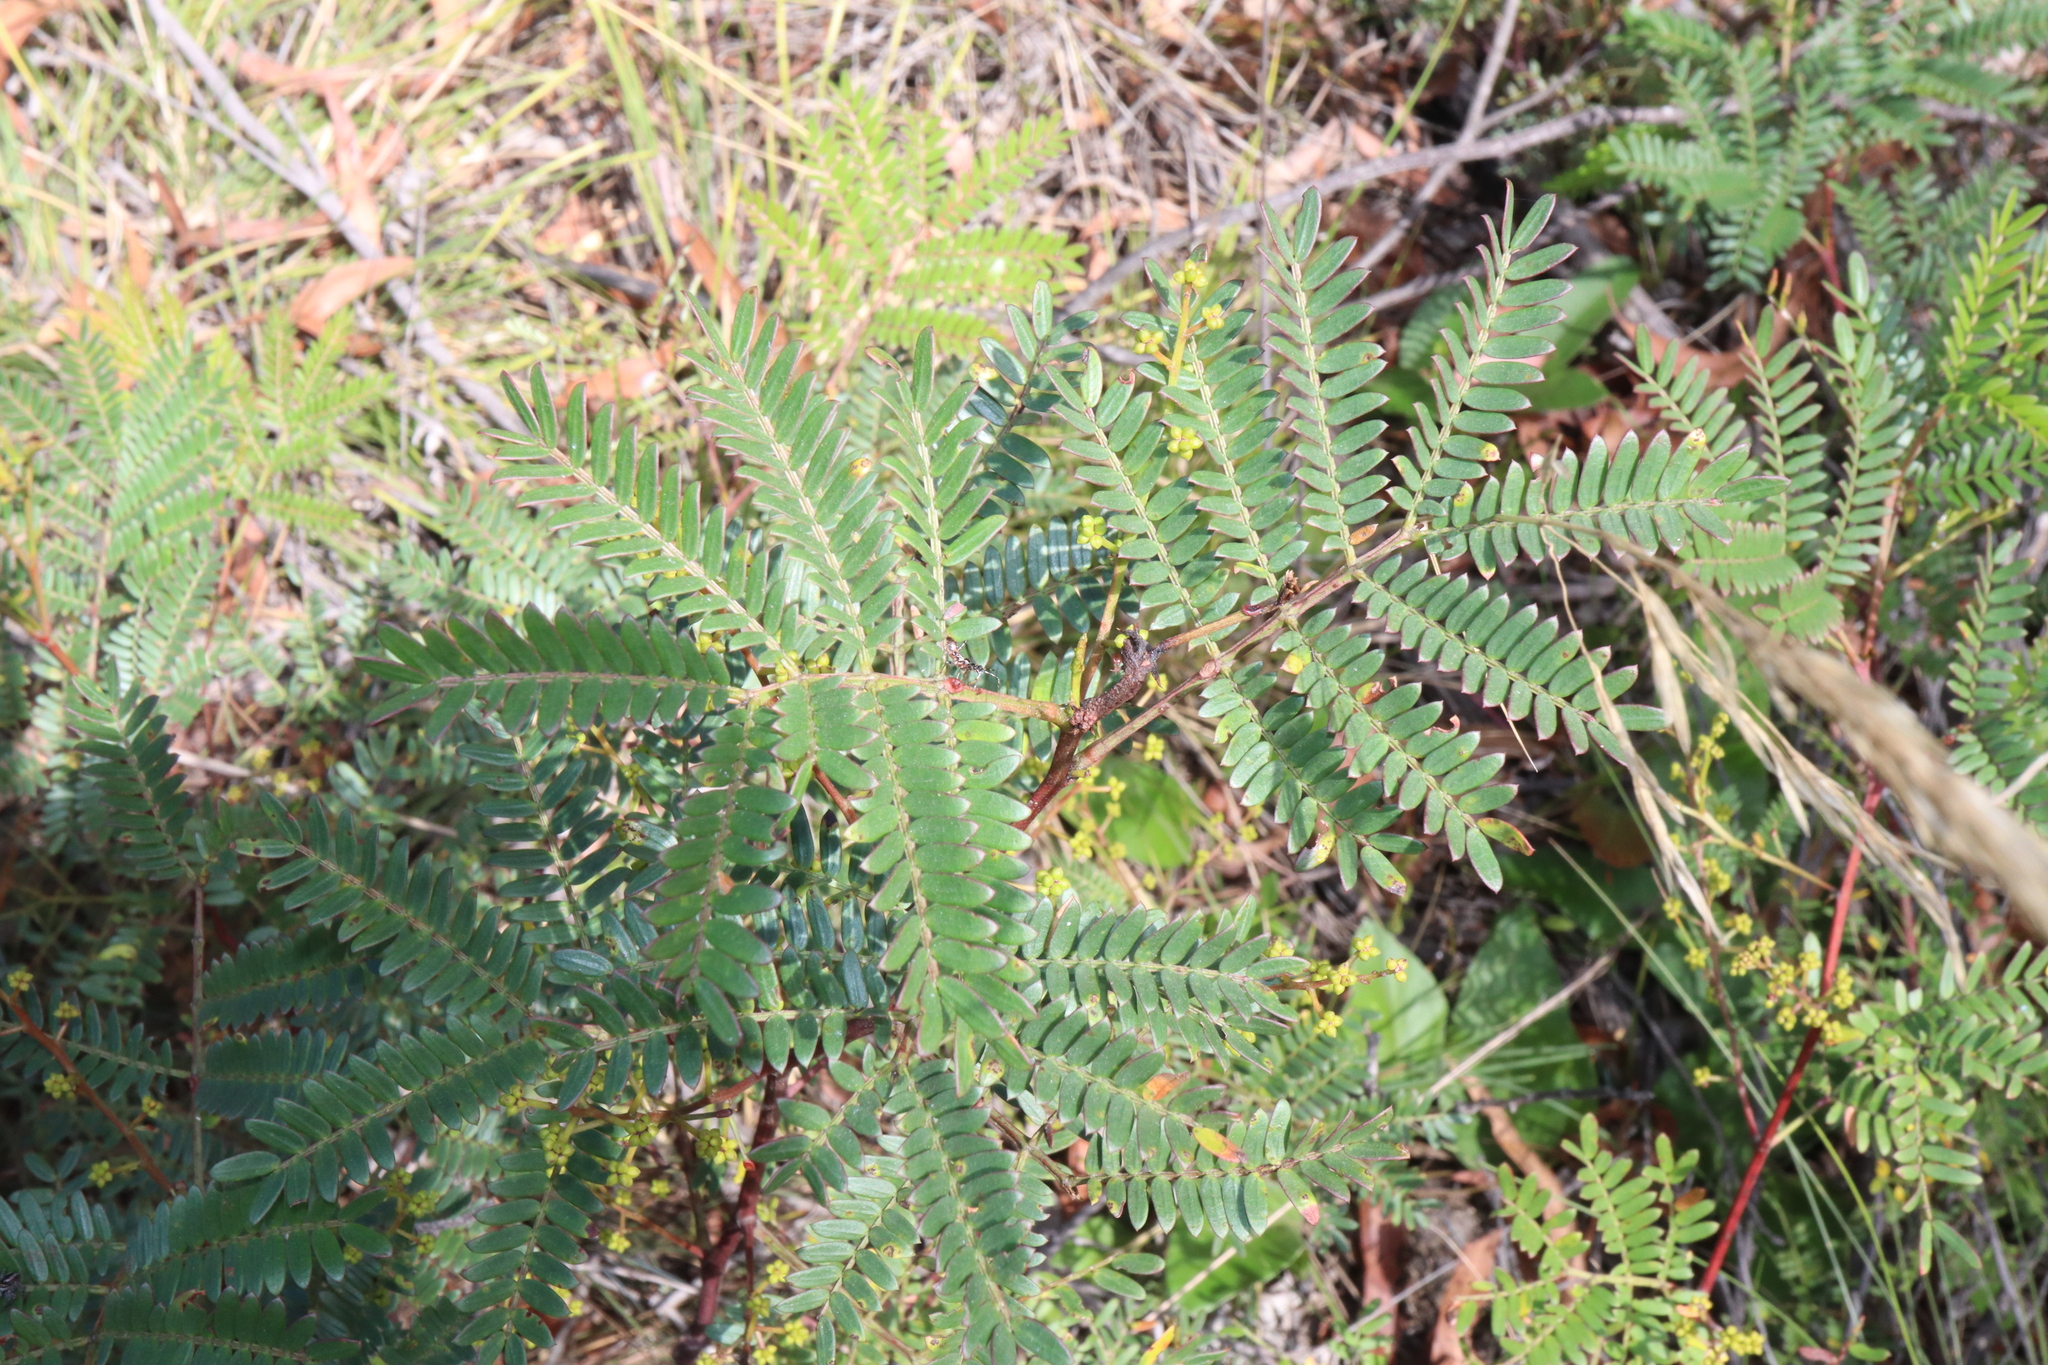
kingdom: Plantae
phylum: Tracheophyta
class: Magnoliopsida
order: Fabales
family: Fabaceae
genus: Acacia
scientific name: Acacia terminalis
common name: Cedar wattle
